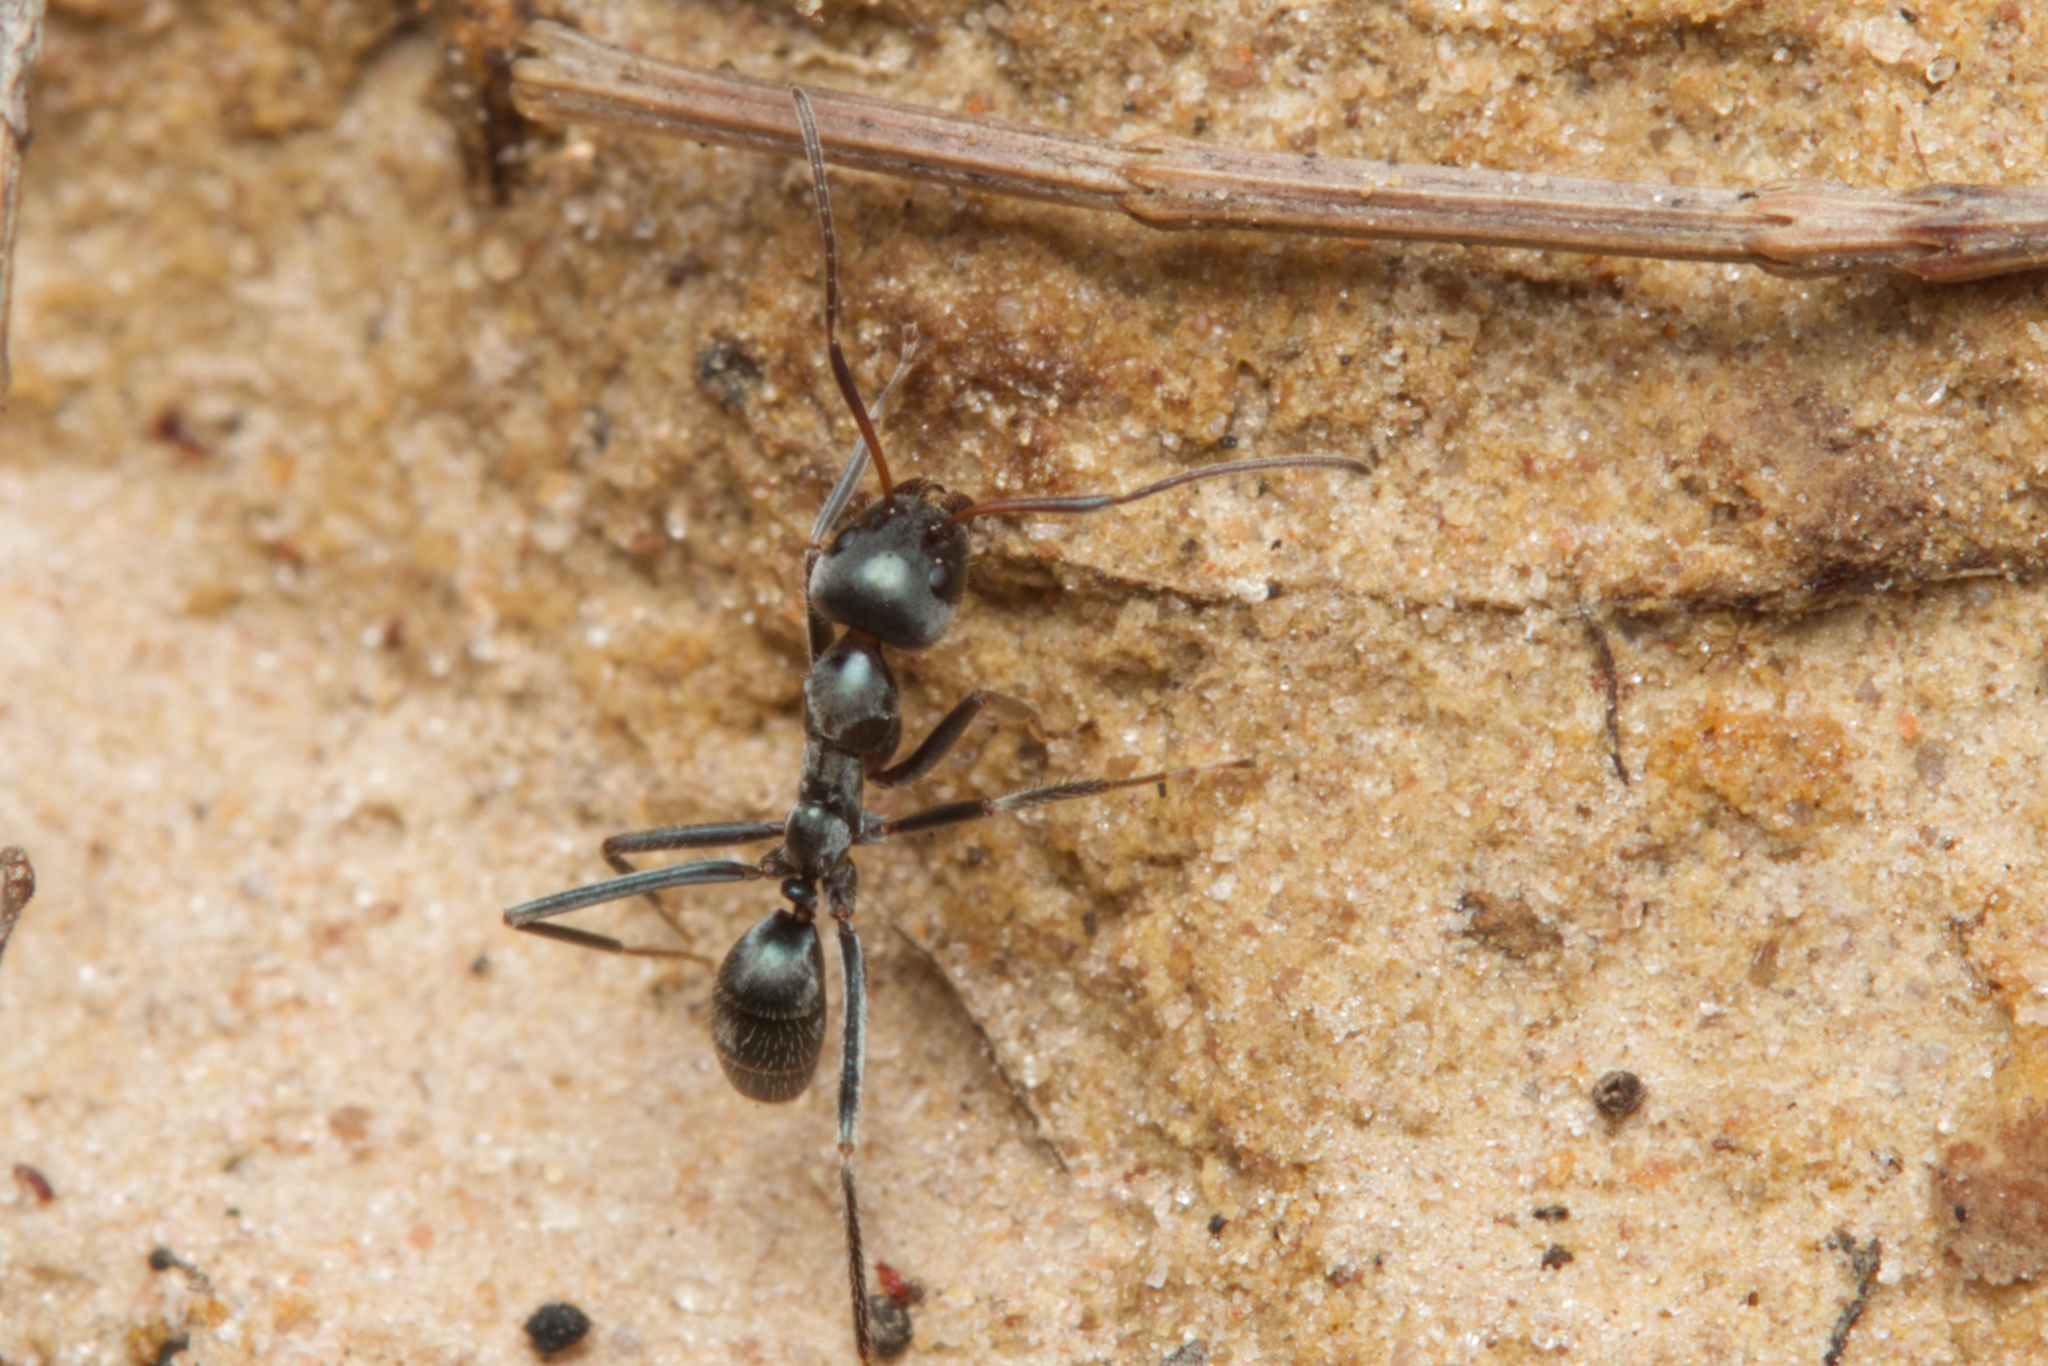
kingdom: Animalia
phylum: Arthropoda
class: Insecta
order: Hymenoptera
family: Formicidae
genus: Iridomyrmex
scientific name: Iridomyrmex
